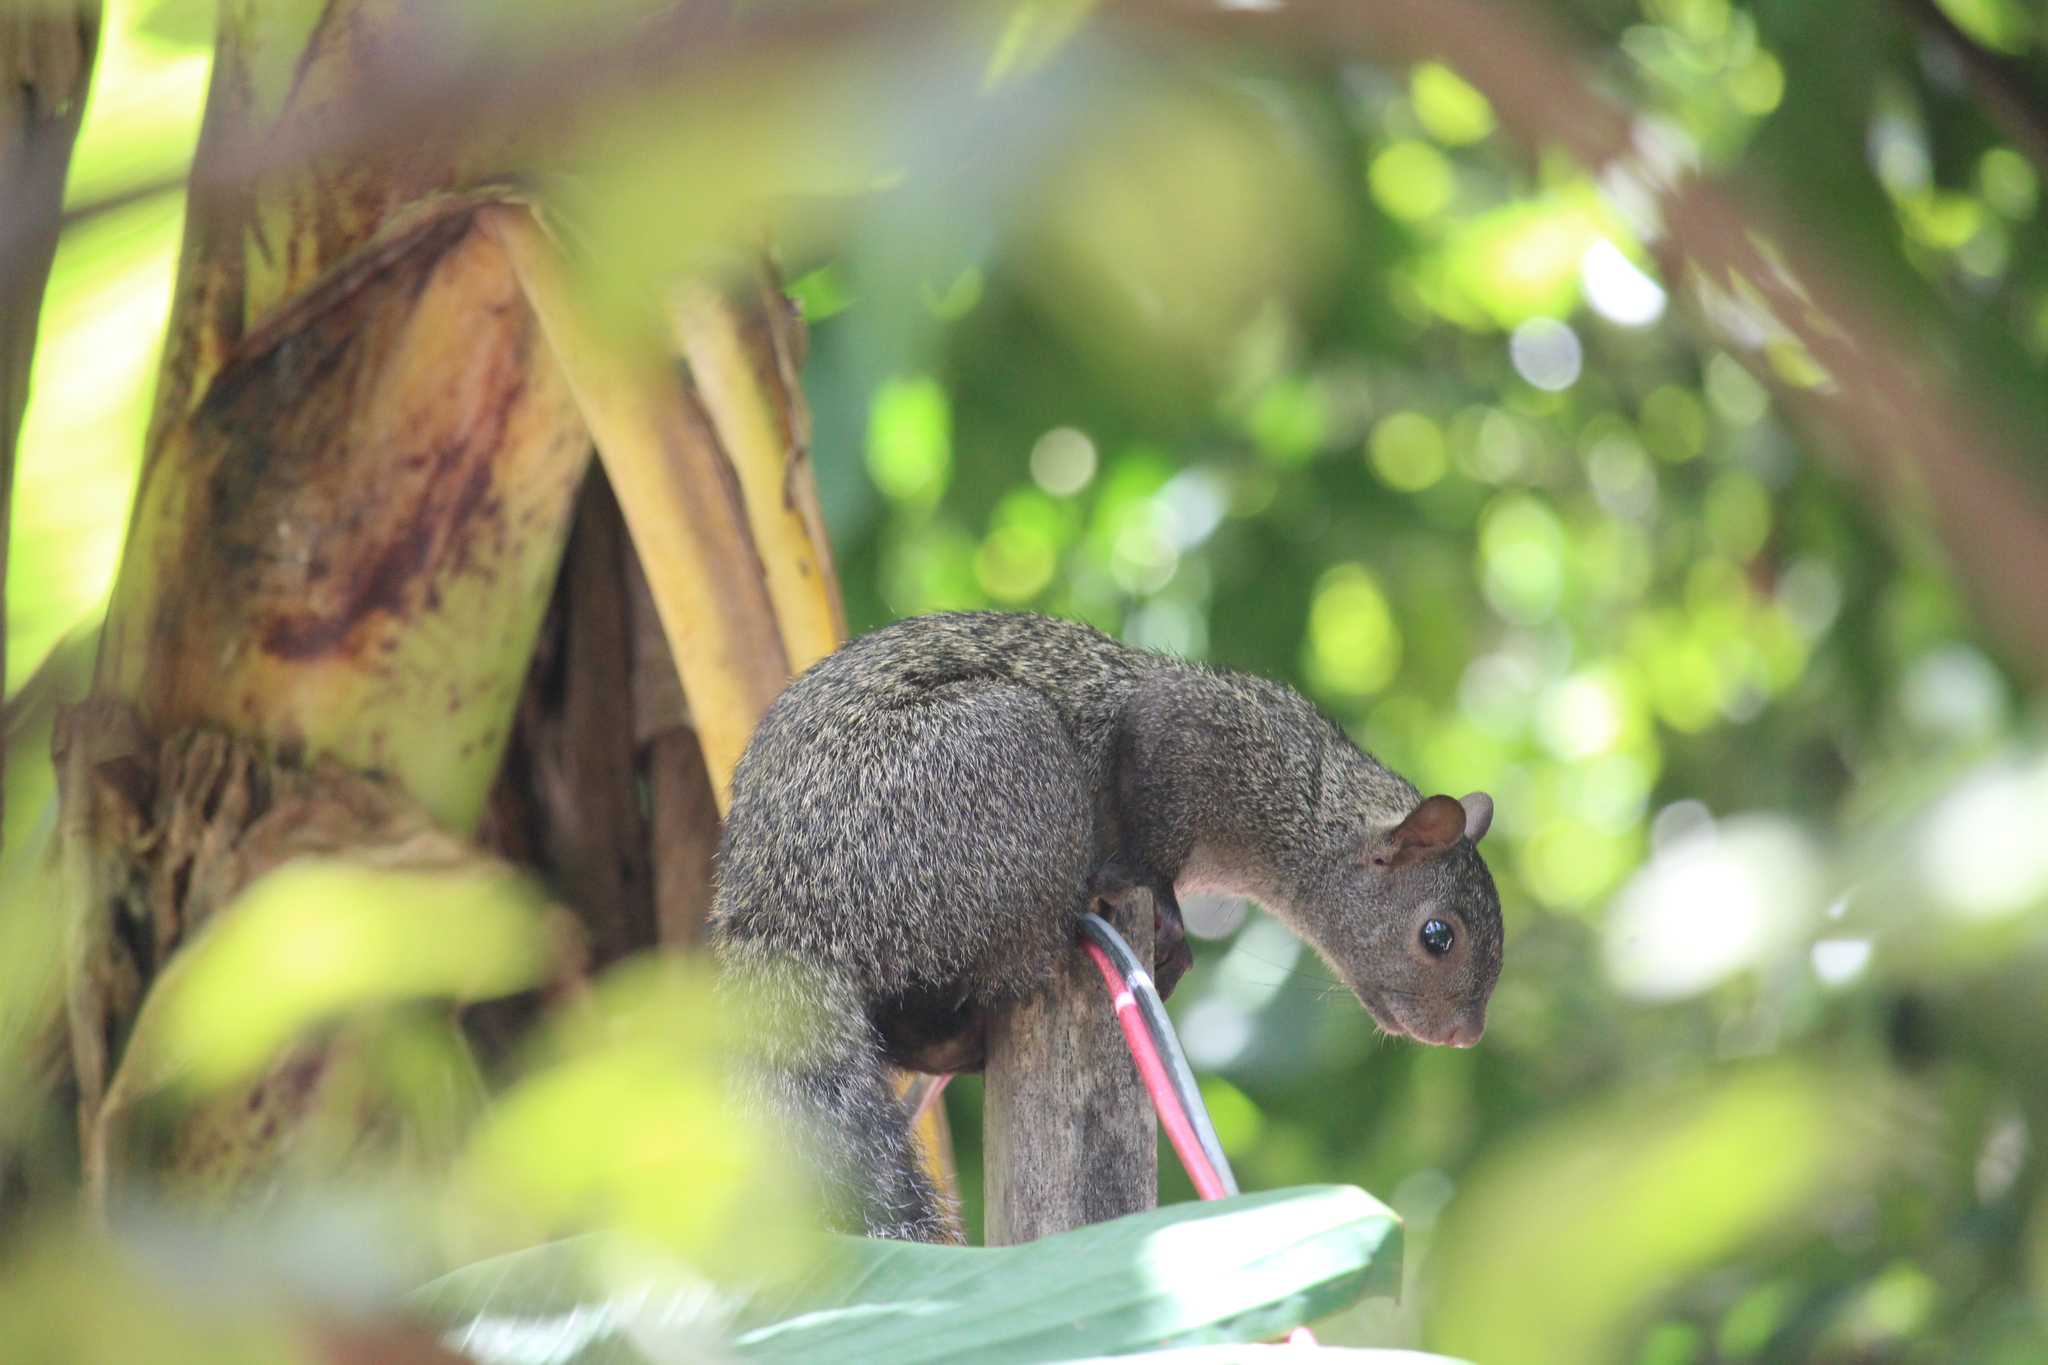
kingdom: Animalia
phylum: Chordata
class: Mammalia
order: Rodentia
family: Sciuridae
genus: Sciurus
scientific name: Sciurus yucatanensis
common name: Yucatan squirrel
